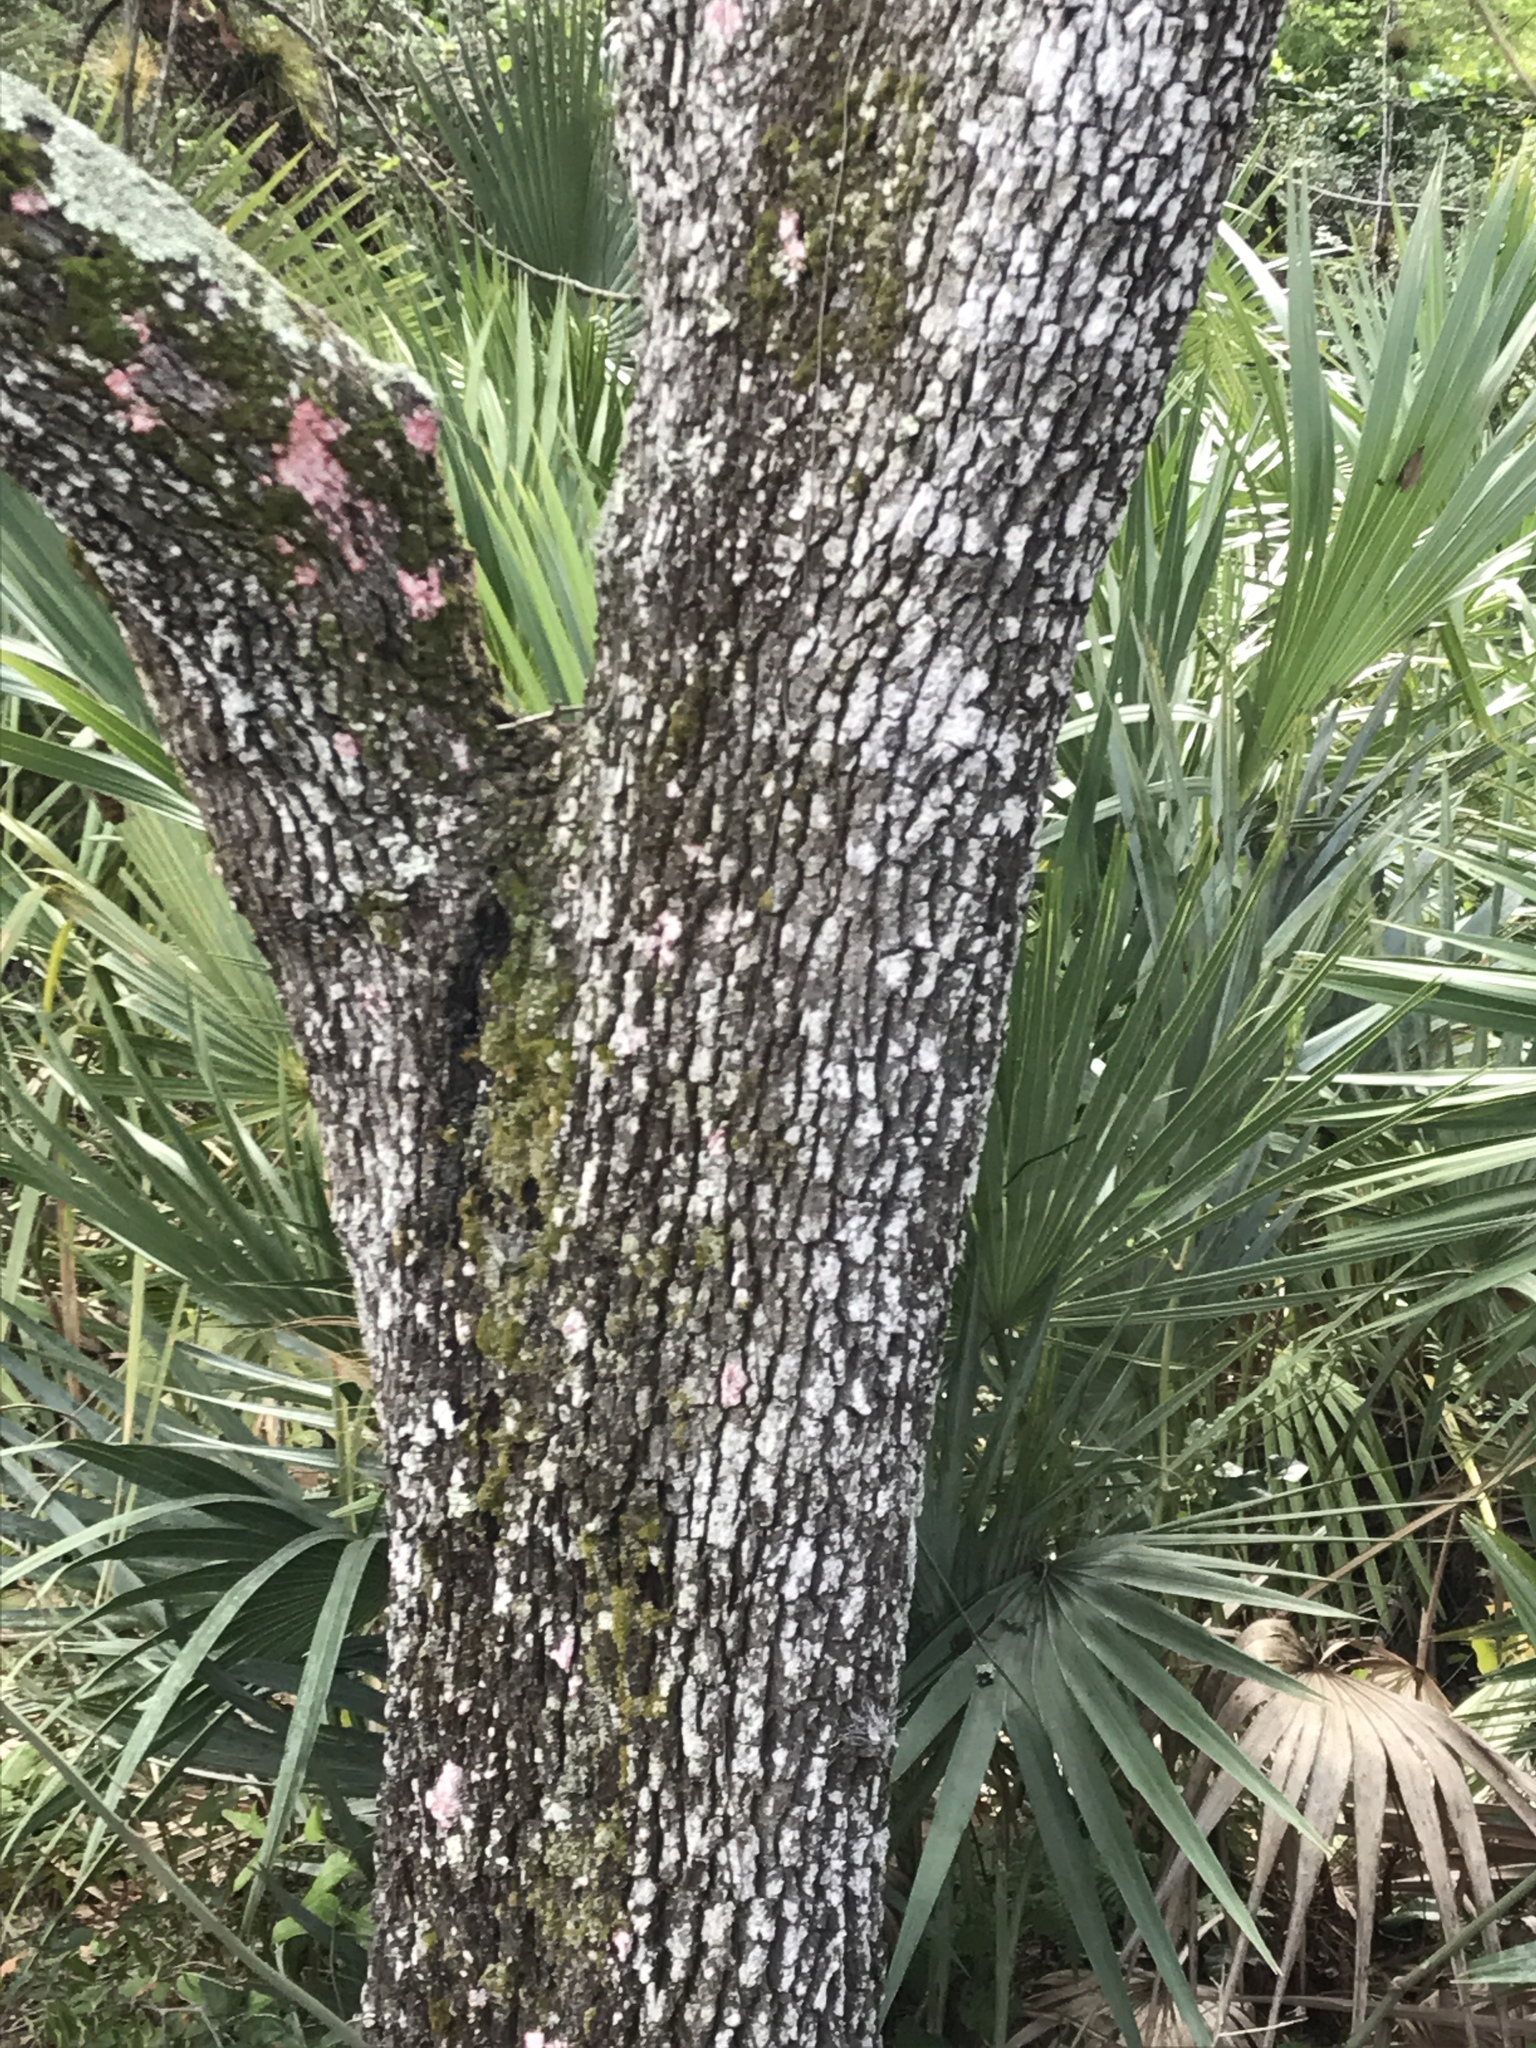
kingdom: Plantae
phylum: Tracheophyta
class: Magnoliopsida
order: Fagales
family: Fagaceae
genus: Quercus
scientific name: Quercus virginiana
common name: Southern live oak
